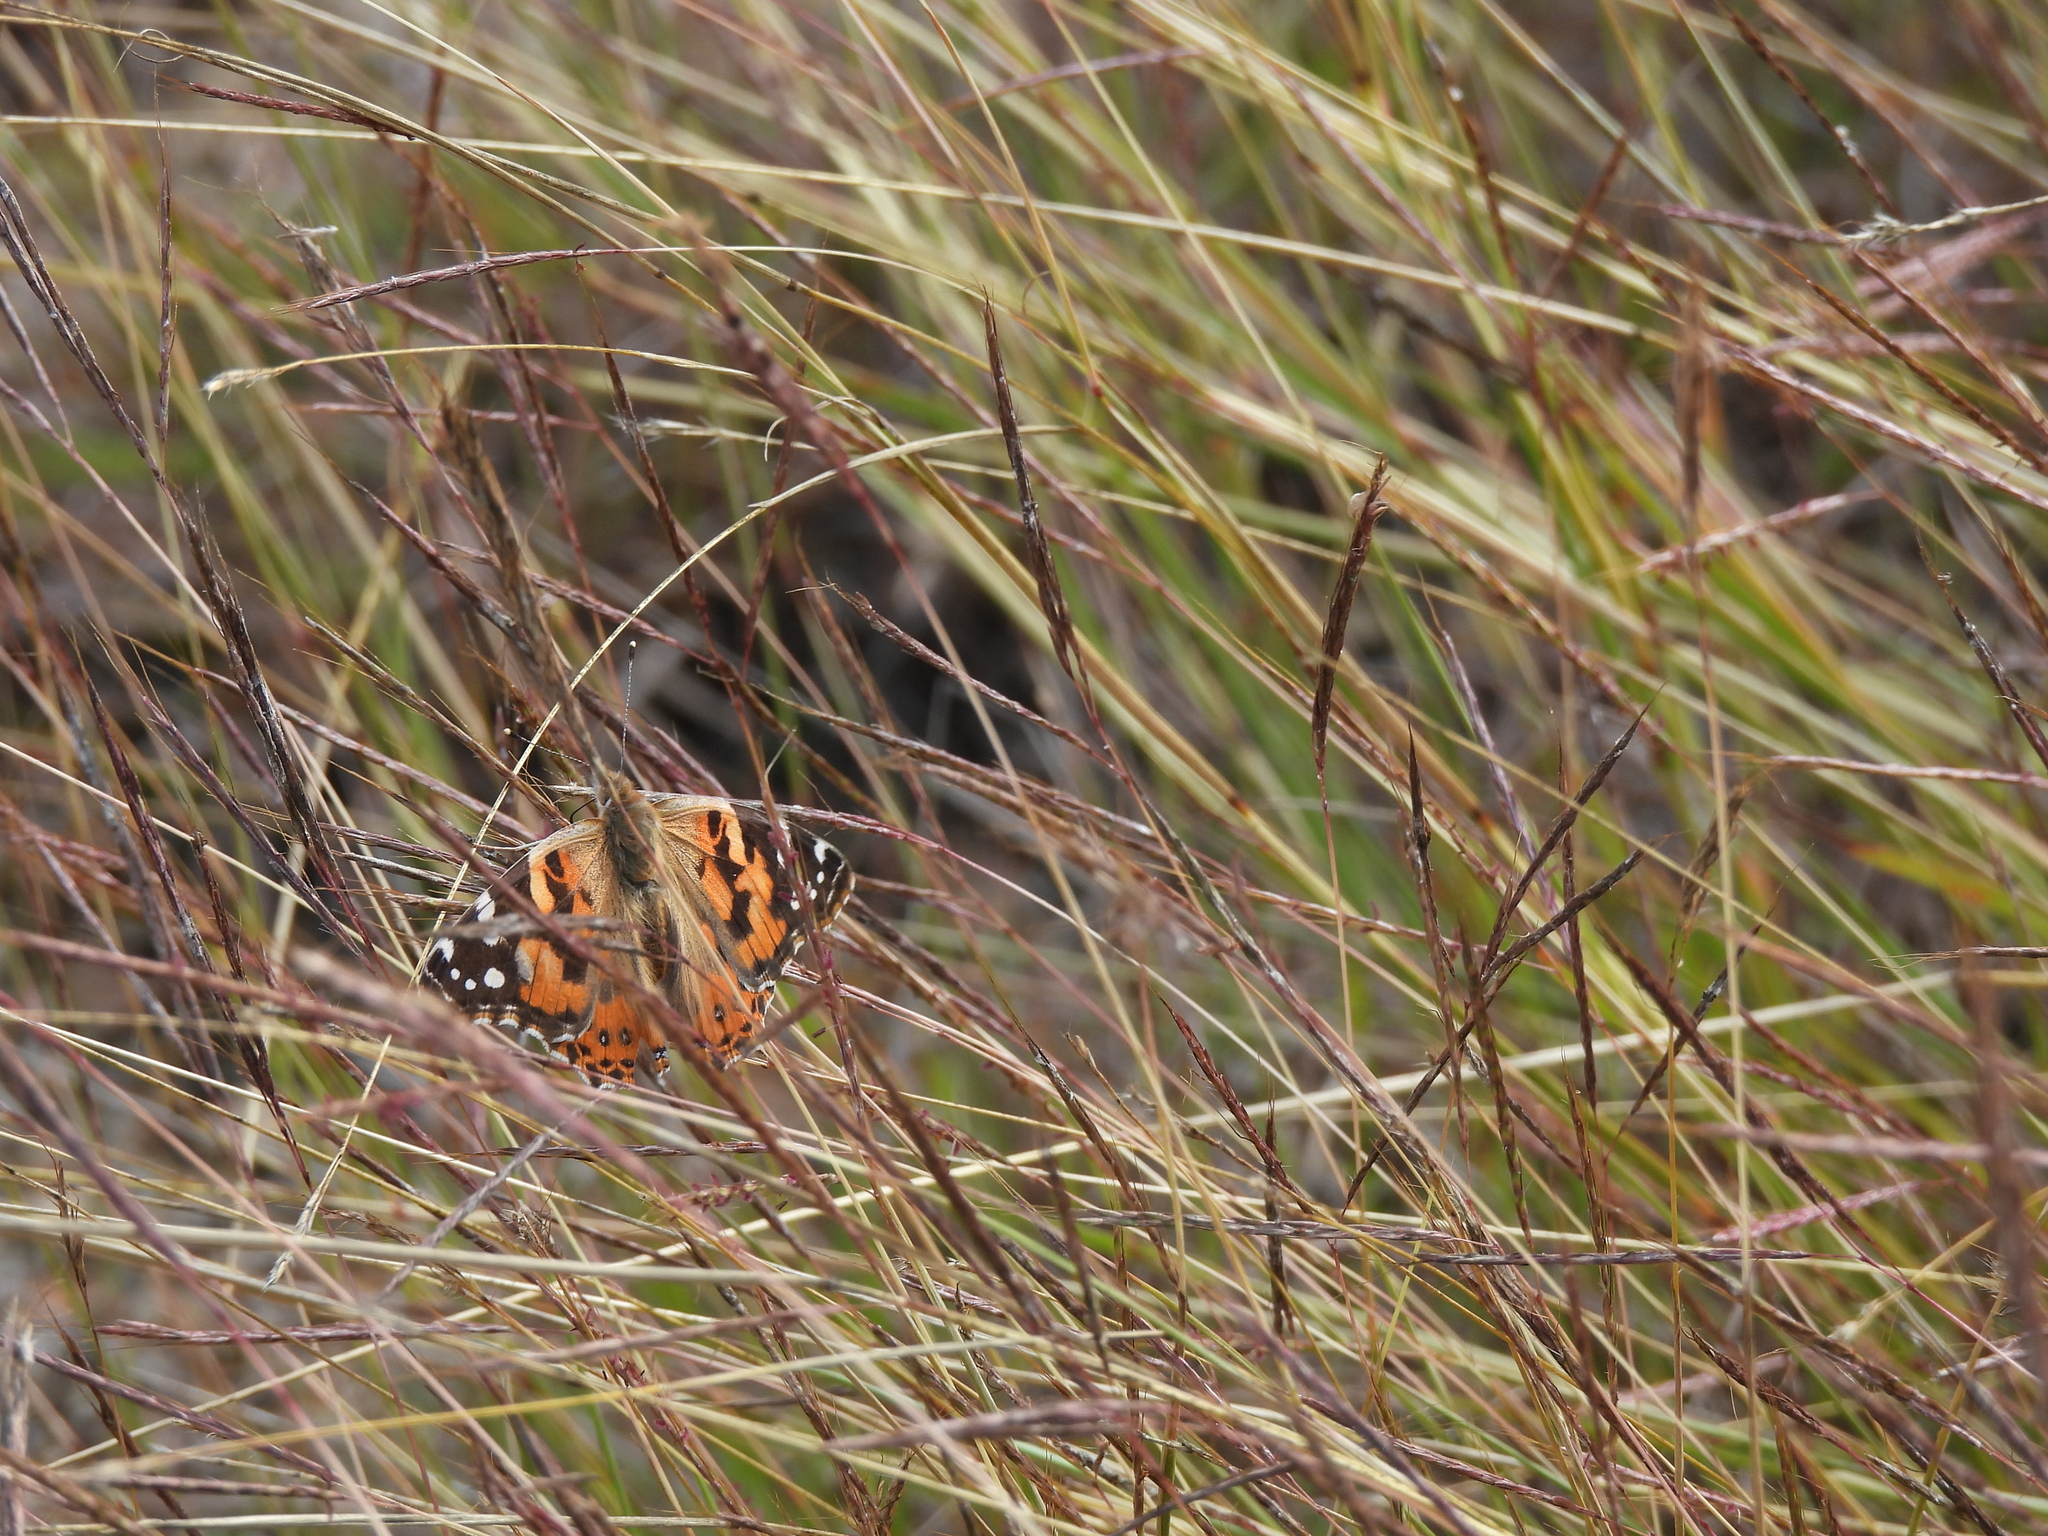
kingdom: Animalia
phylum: Arthropoda
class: Insecta
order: Lepidoptera
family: Nymphalidae
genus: Vanessa
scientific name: Vanessa cardui
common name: Painted lady
